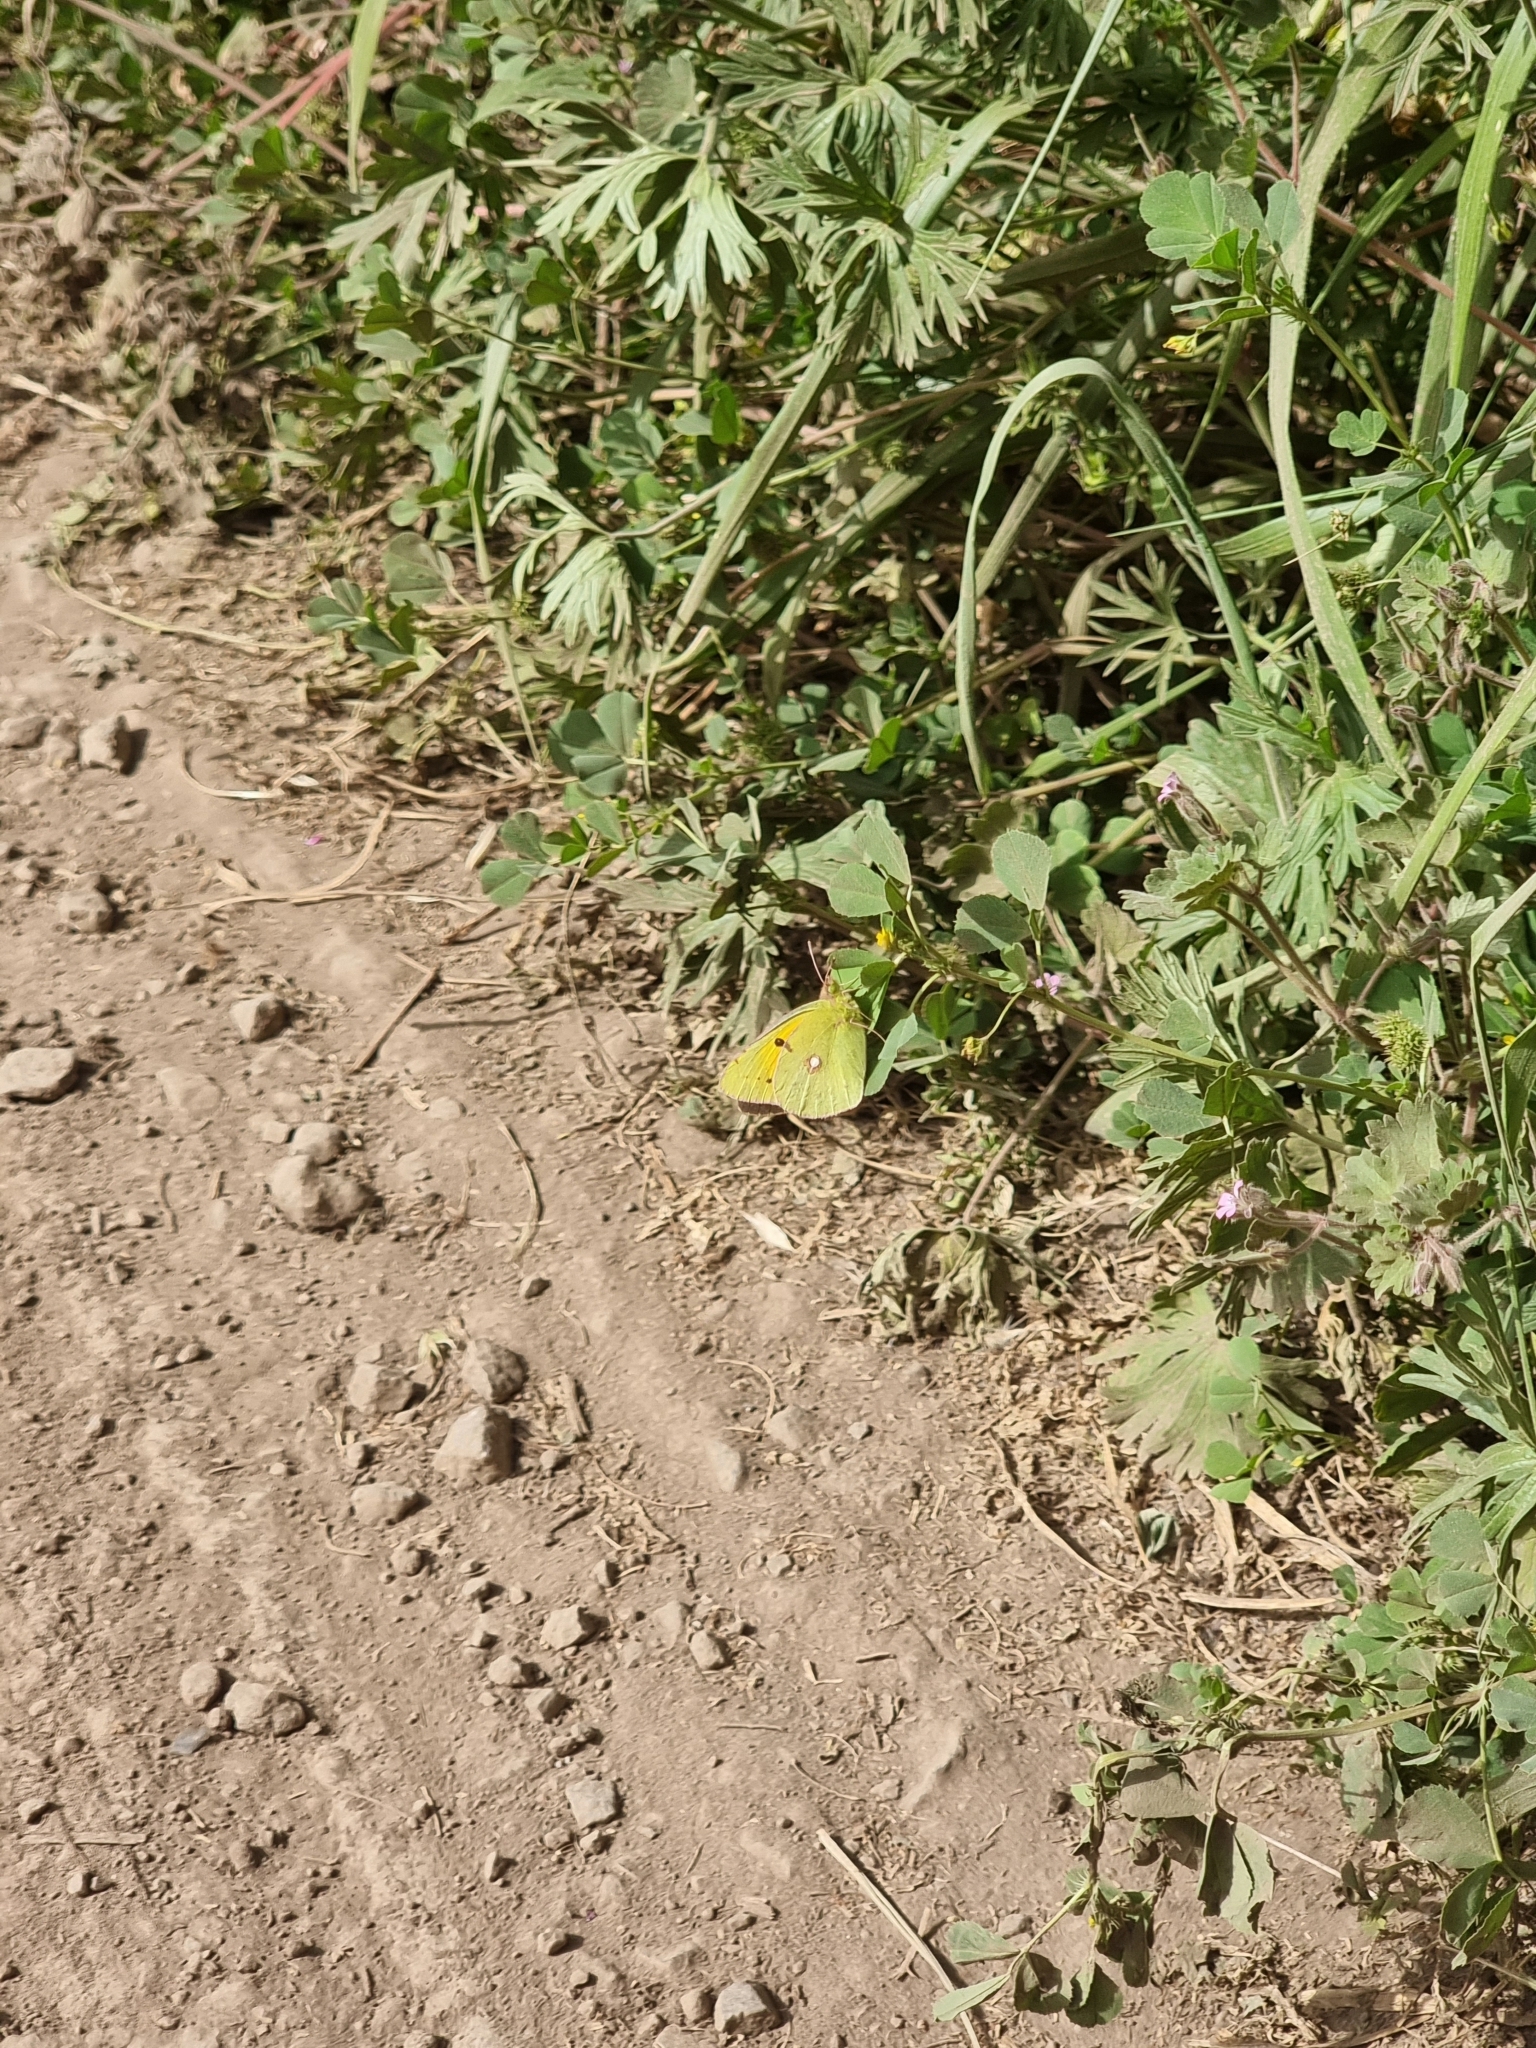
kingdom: Animalia
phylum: Arthropoda
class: Insecta
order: Lepidoptera
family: Pieridae
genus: Colias
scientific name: Colias croceus
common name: Clouded yellow
